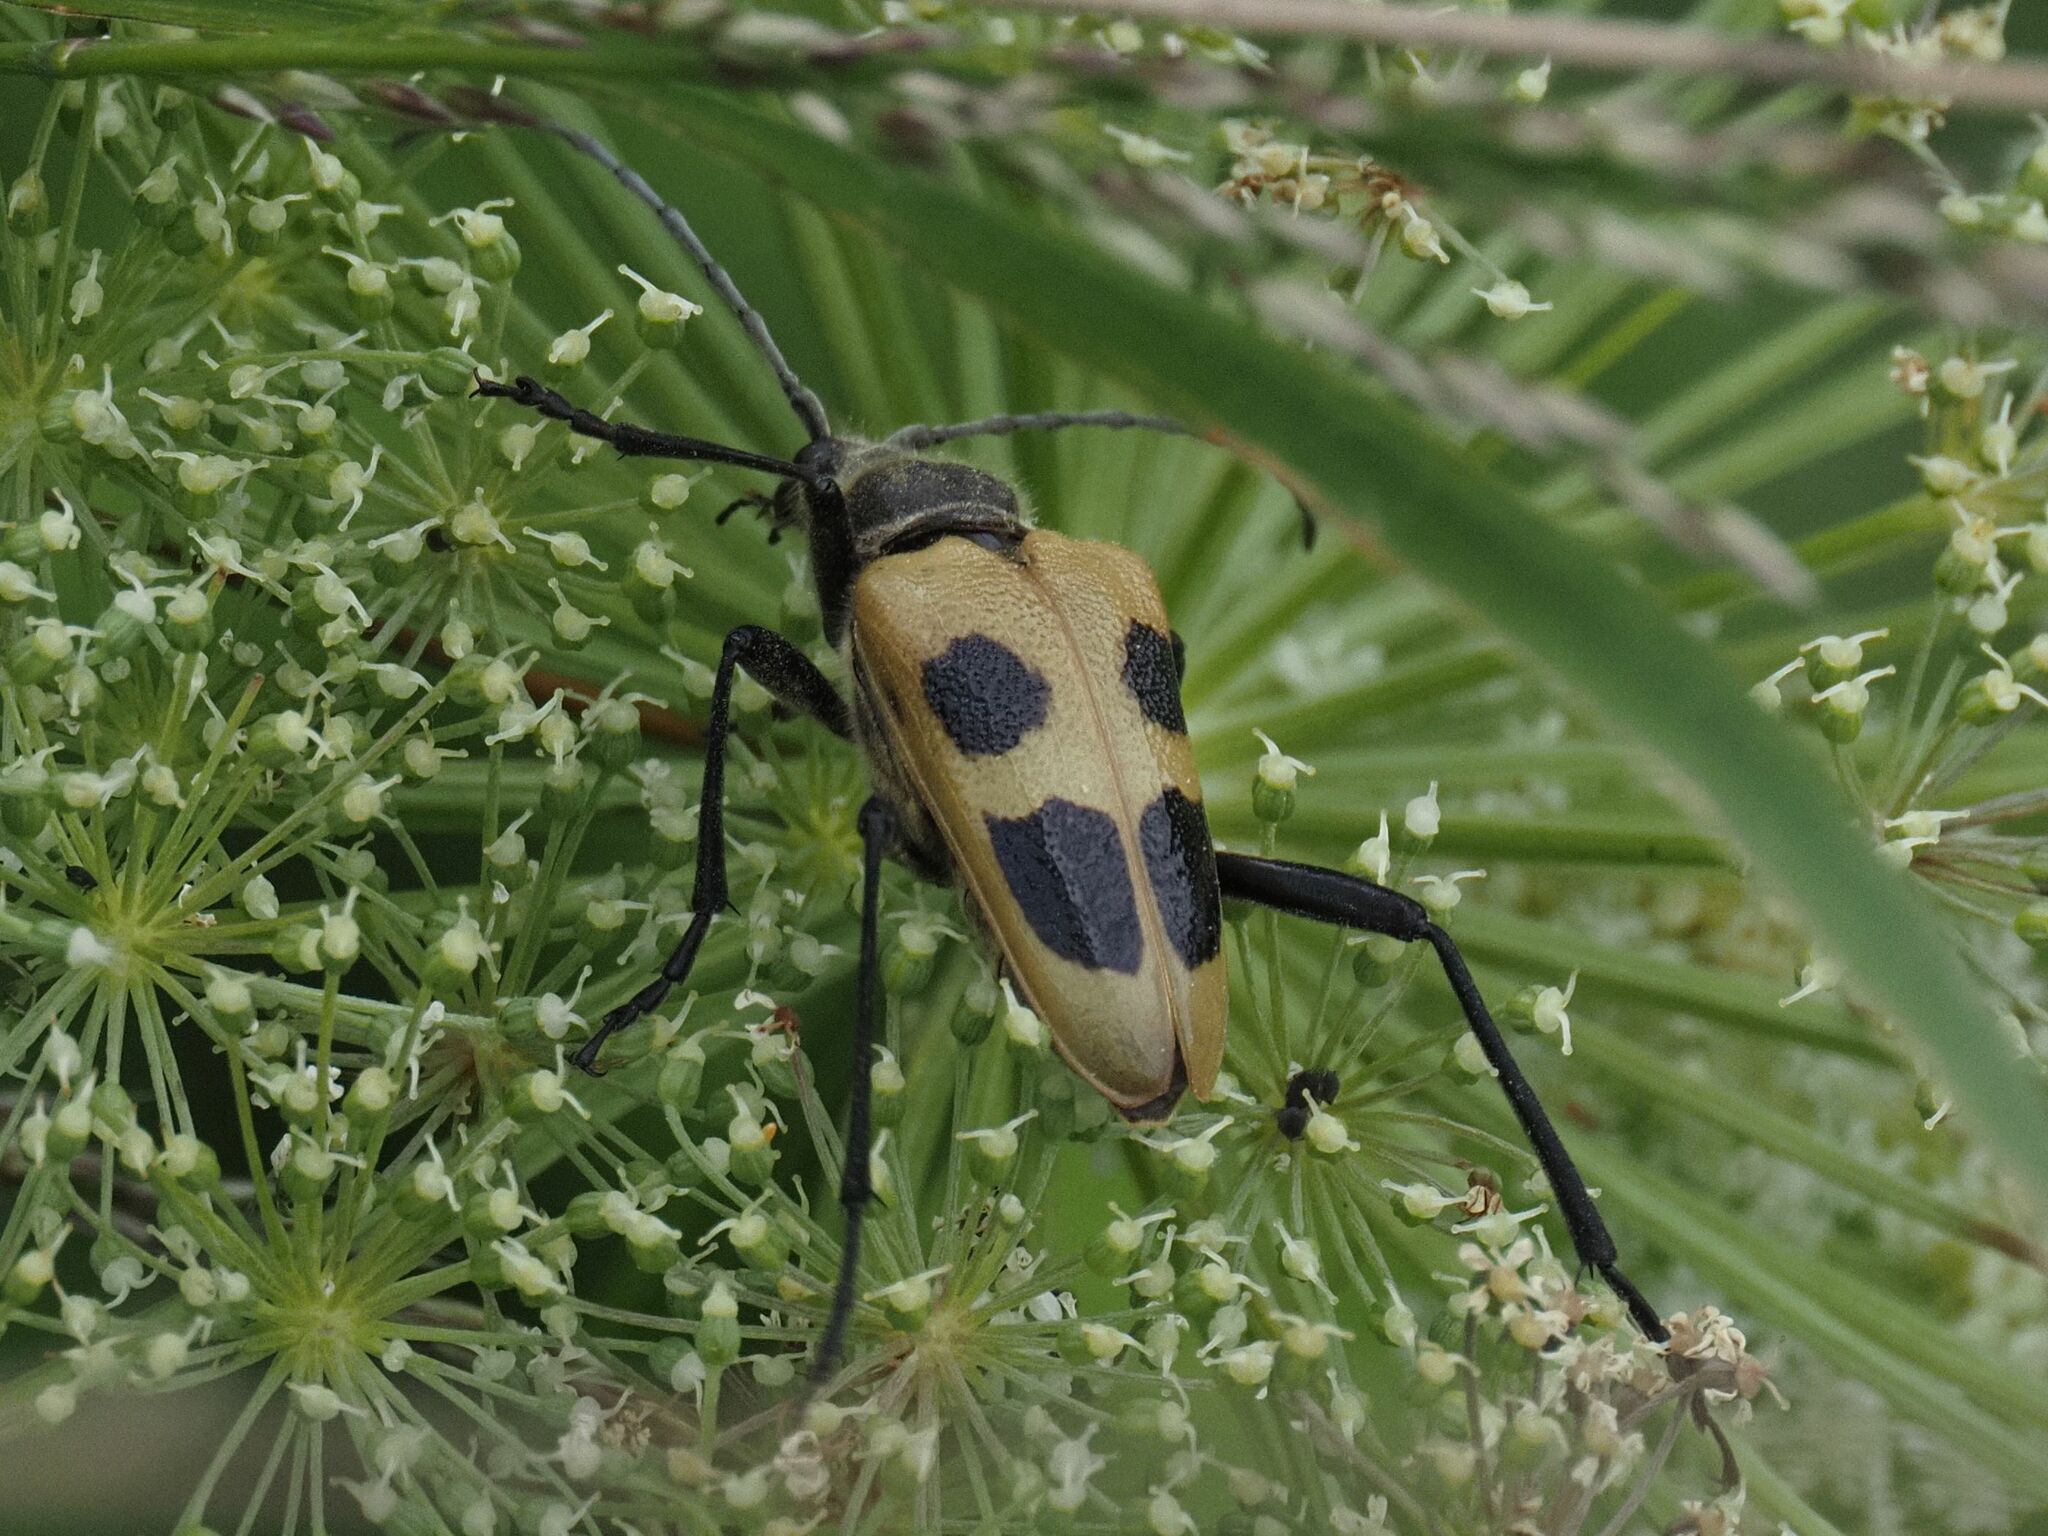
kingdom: Animalia
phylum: Arthropoda
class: Insecta
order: Coleoptera
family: Cerambycidae
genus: Pachyta
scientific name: Pachyta quadrimaculata
